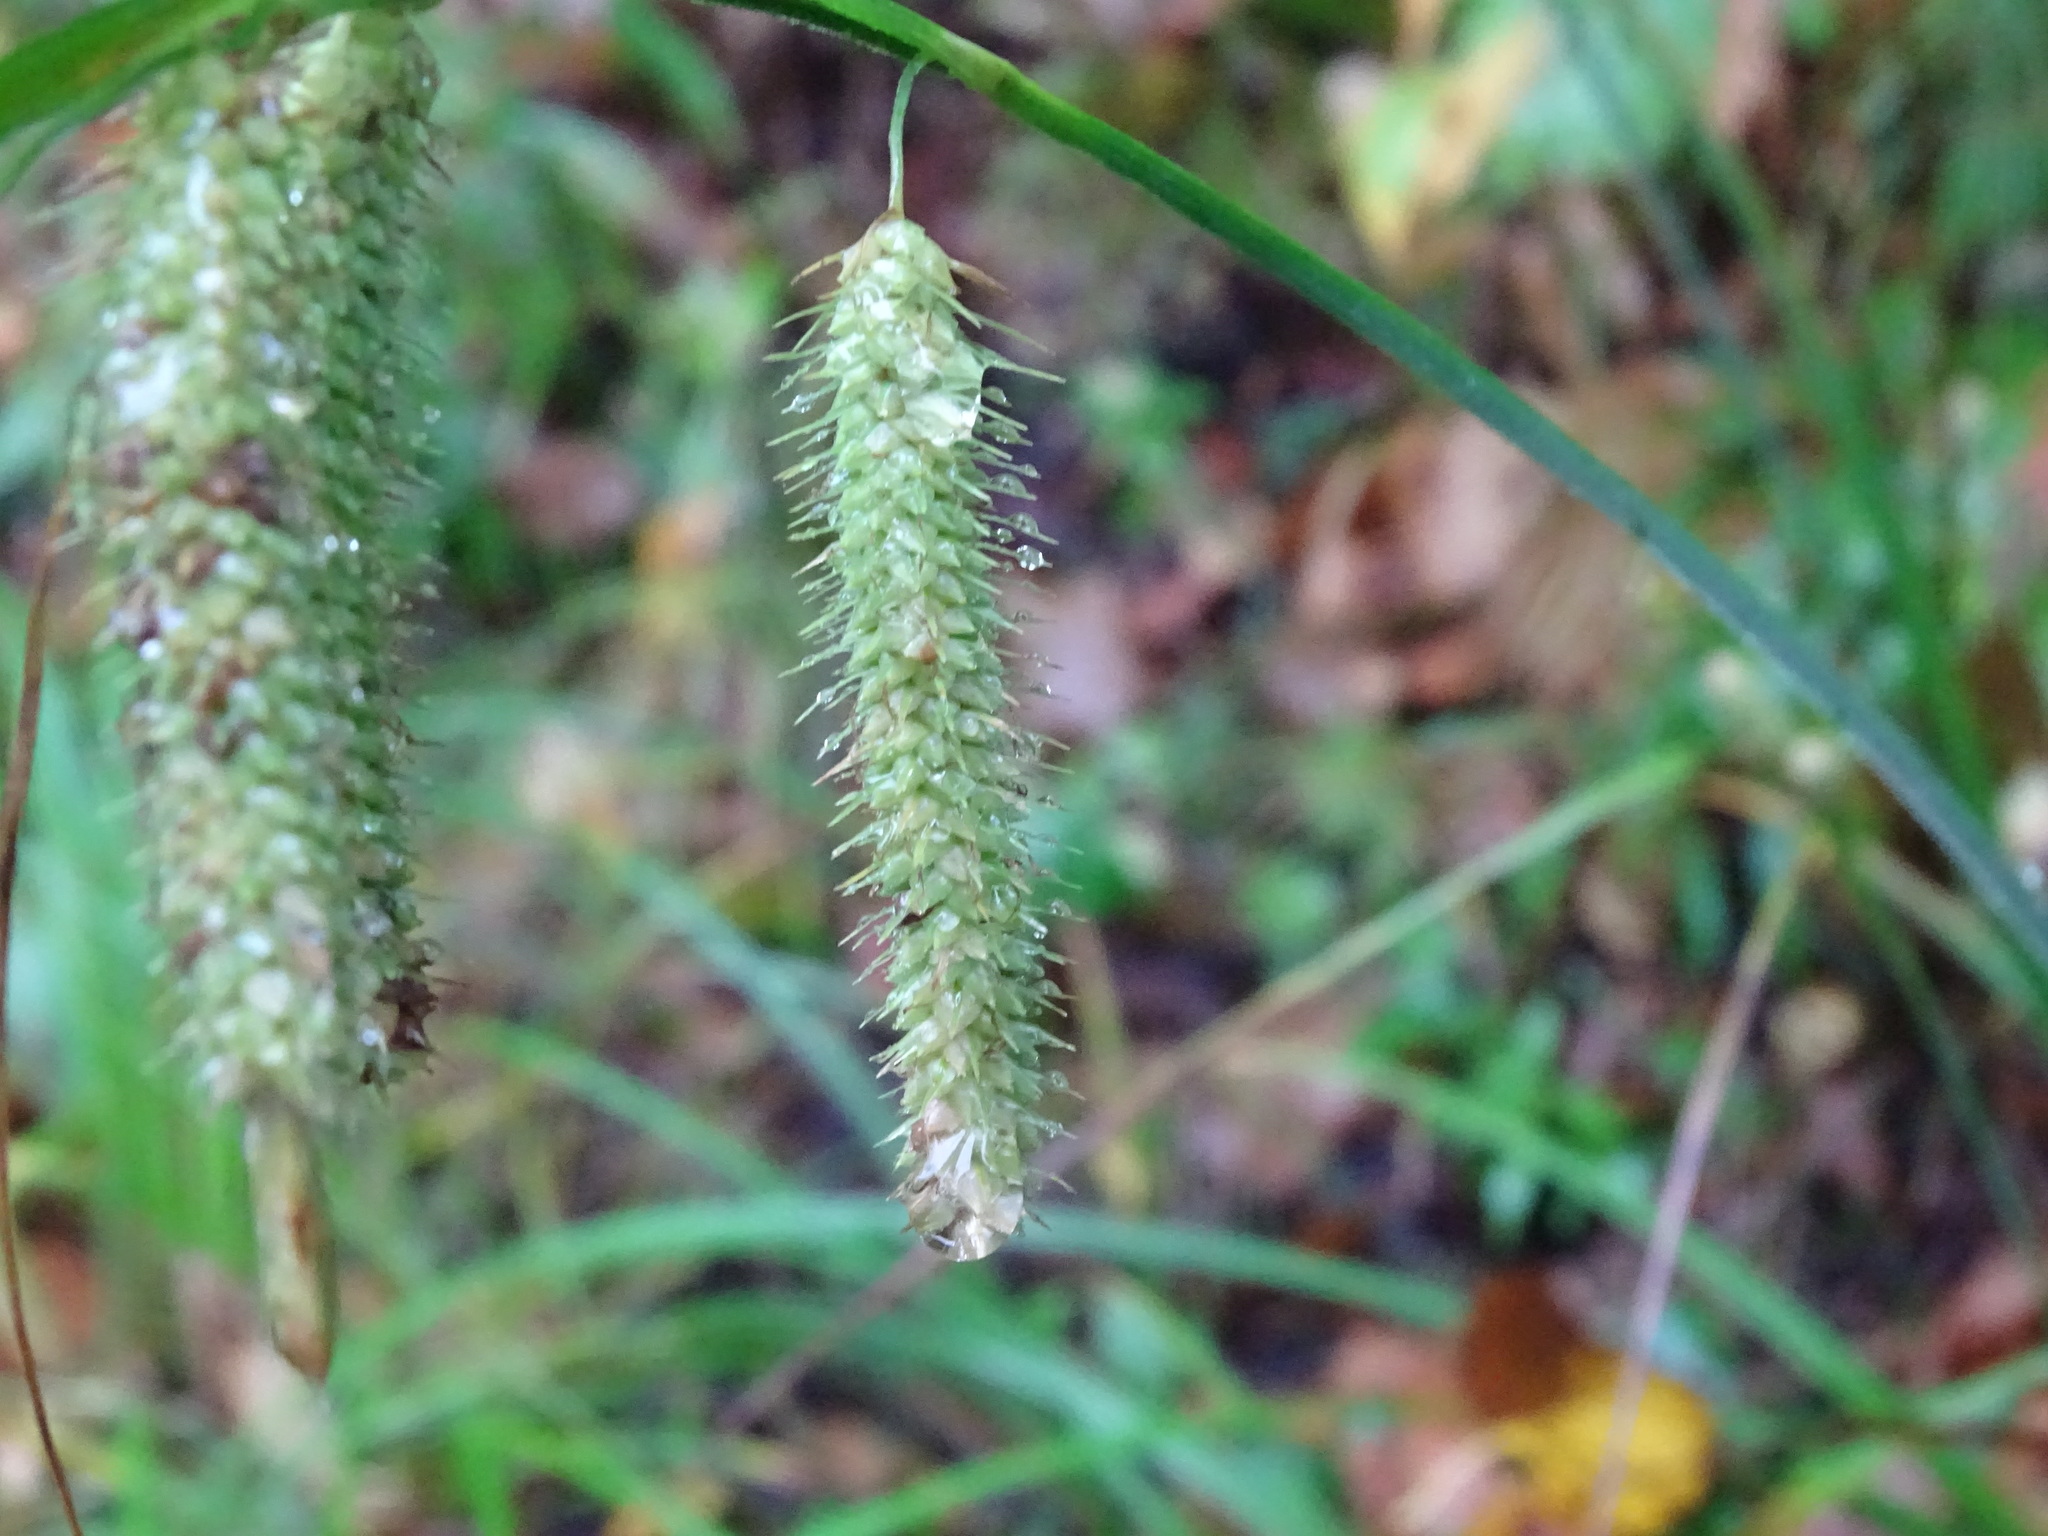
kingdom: Plantae
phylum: Tracheophyta
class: Liliopsida
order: Poales
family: Cyperaceae
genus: Carex
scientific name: Carex gynandra
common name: Nodding sedge
